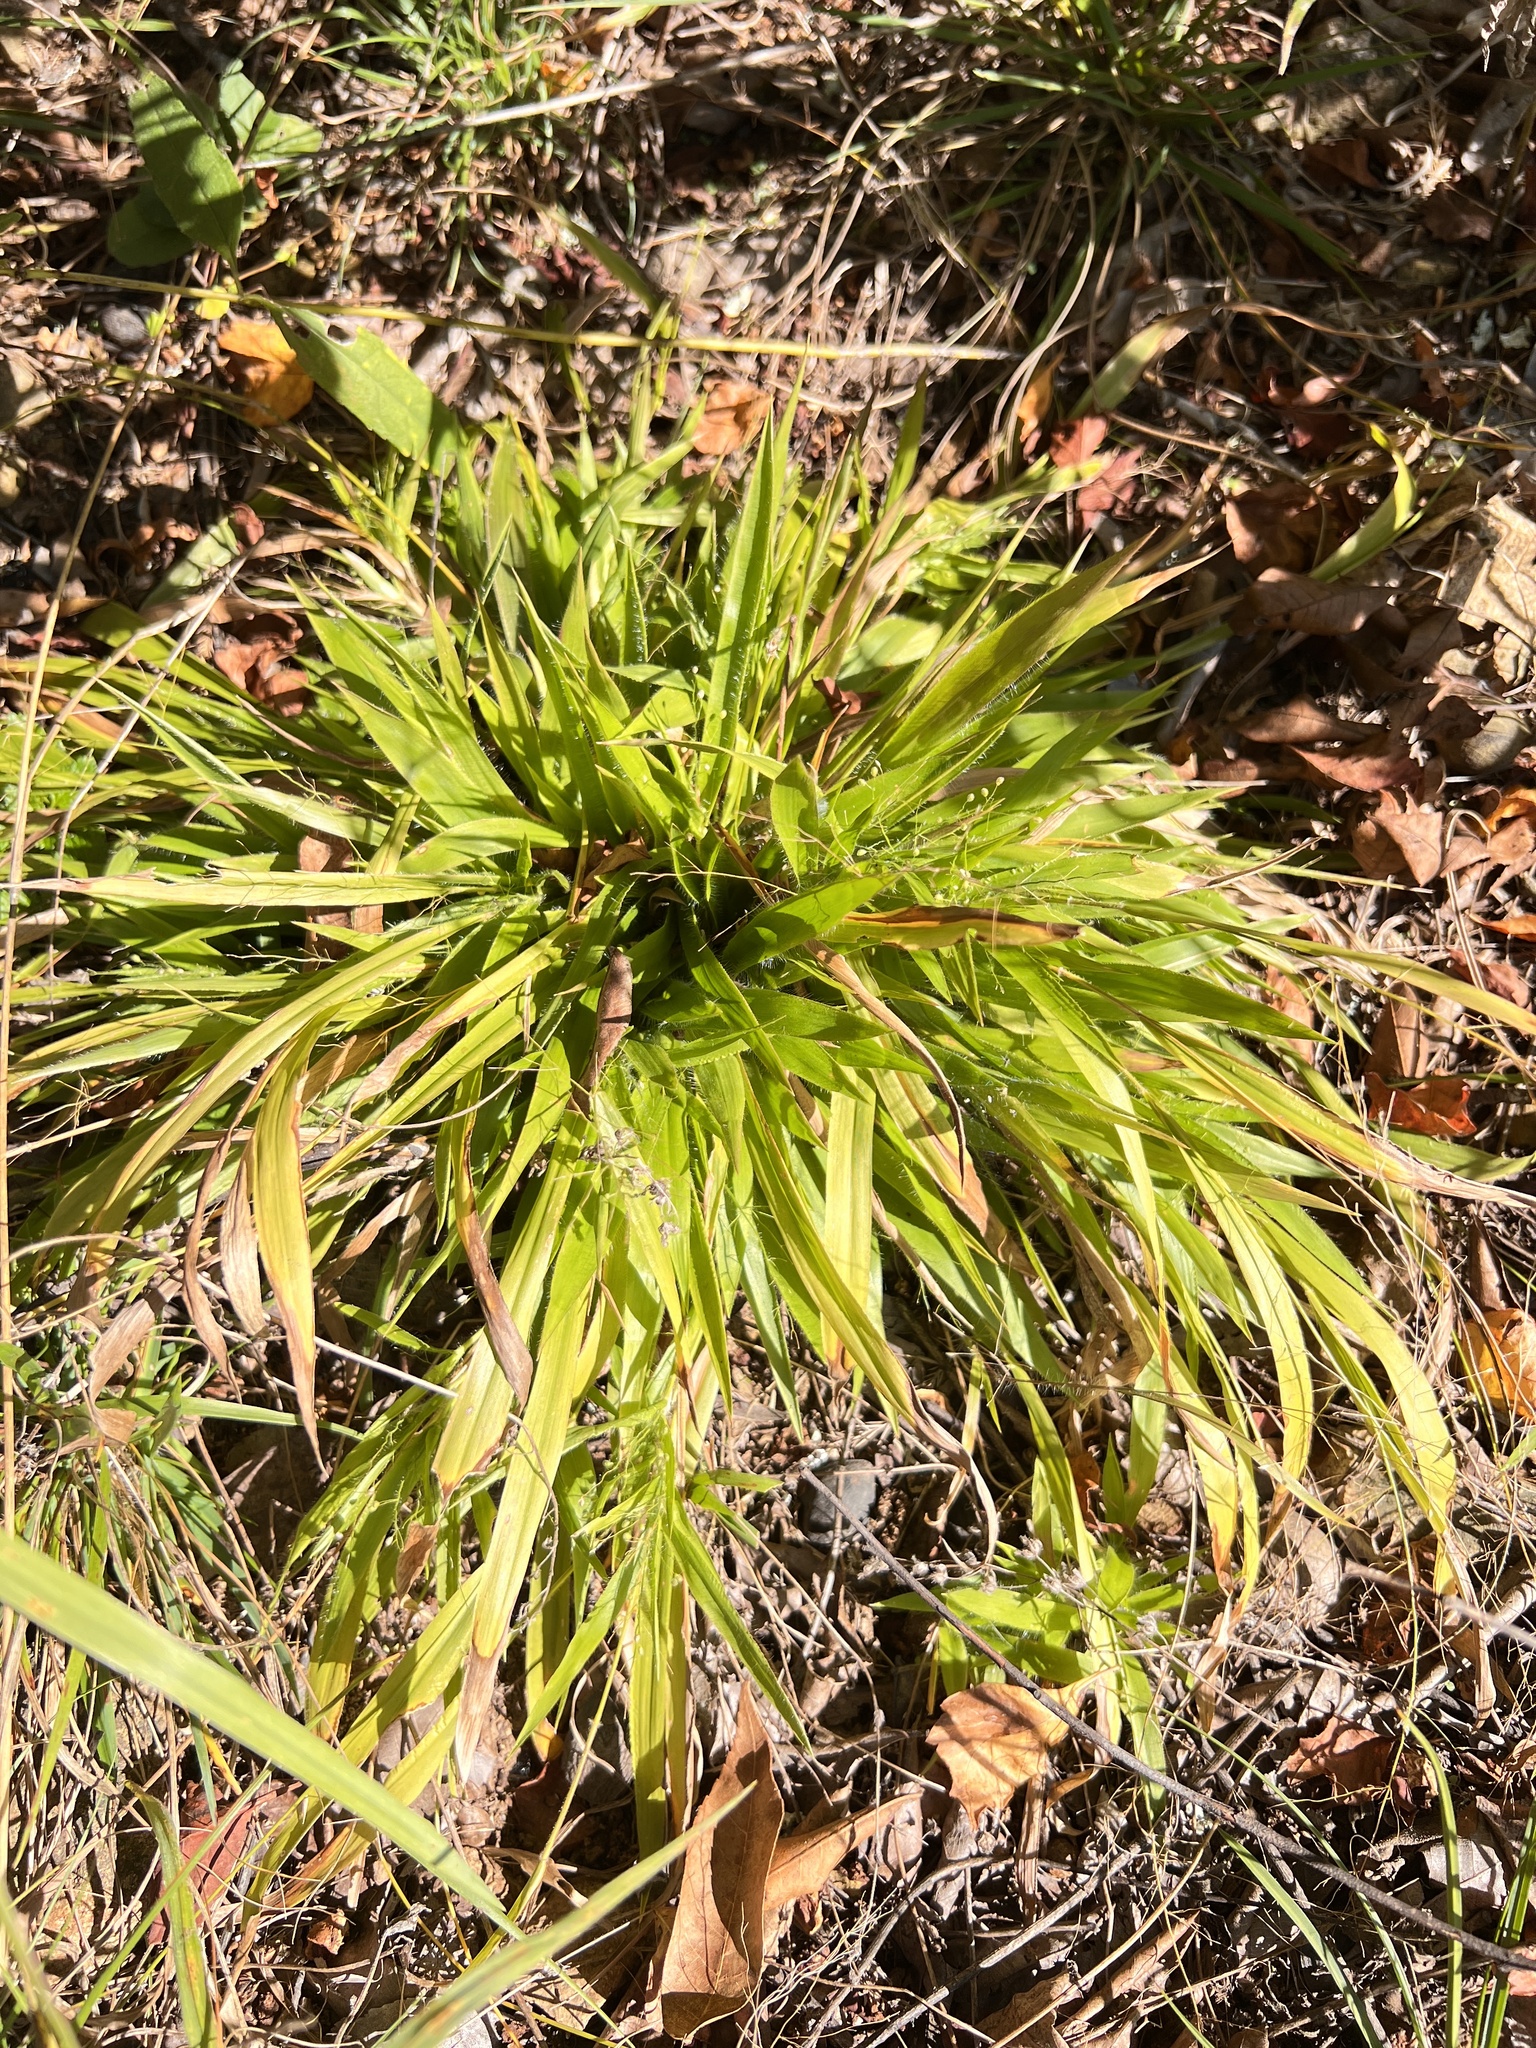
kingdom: Plantae
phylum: Tracheophyta
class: Liliopsida
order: Poales
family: Poaceae
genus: Dichanthelium
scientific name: Dichanthelium laxiflorum
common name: Soft-tuft panic grass
